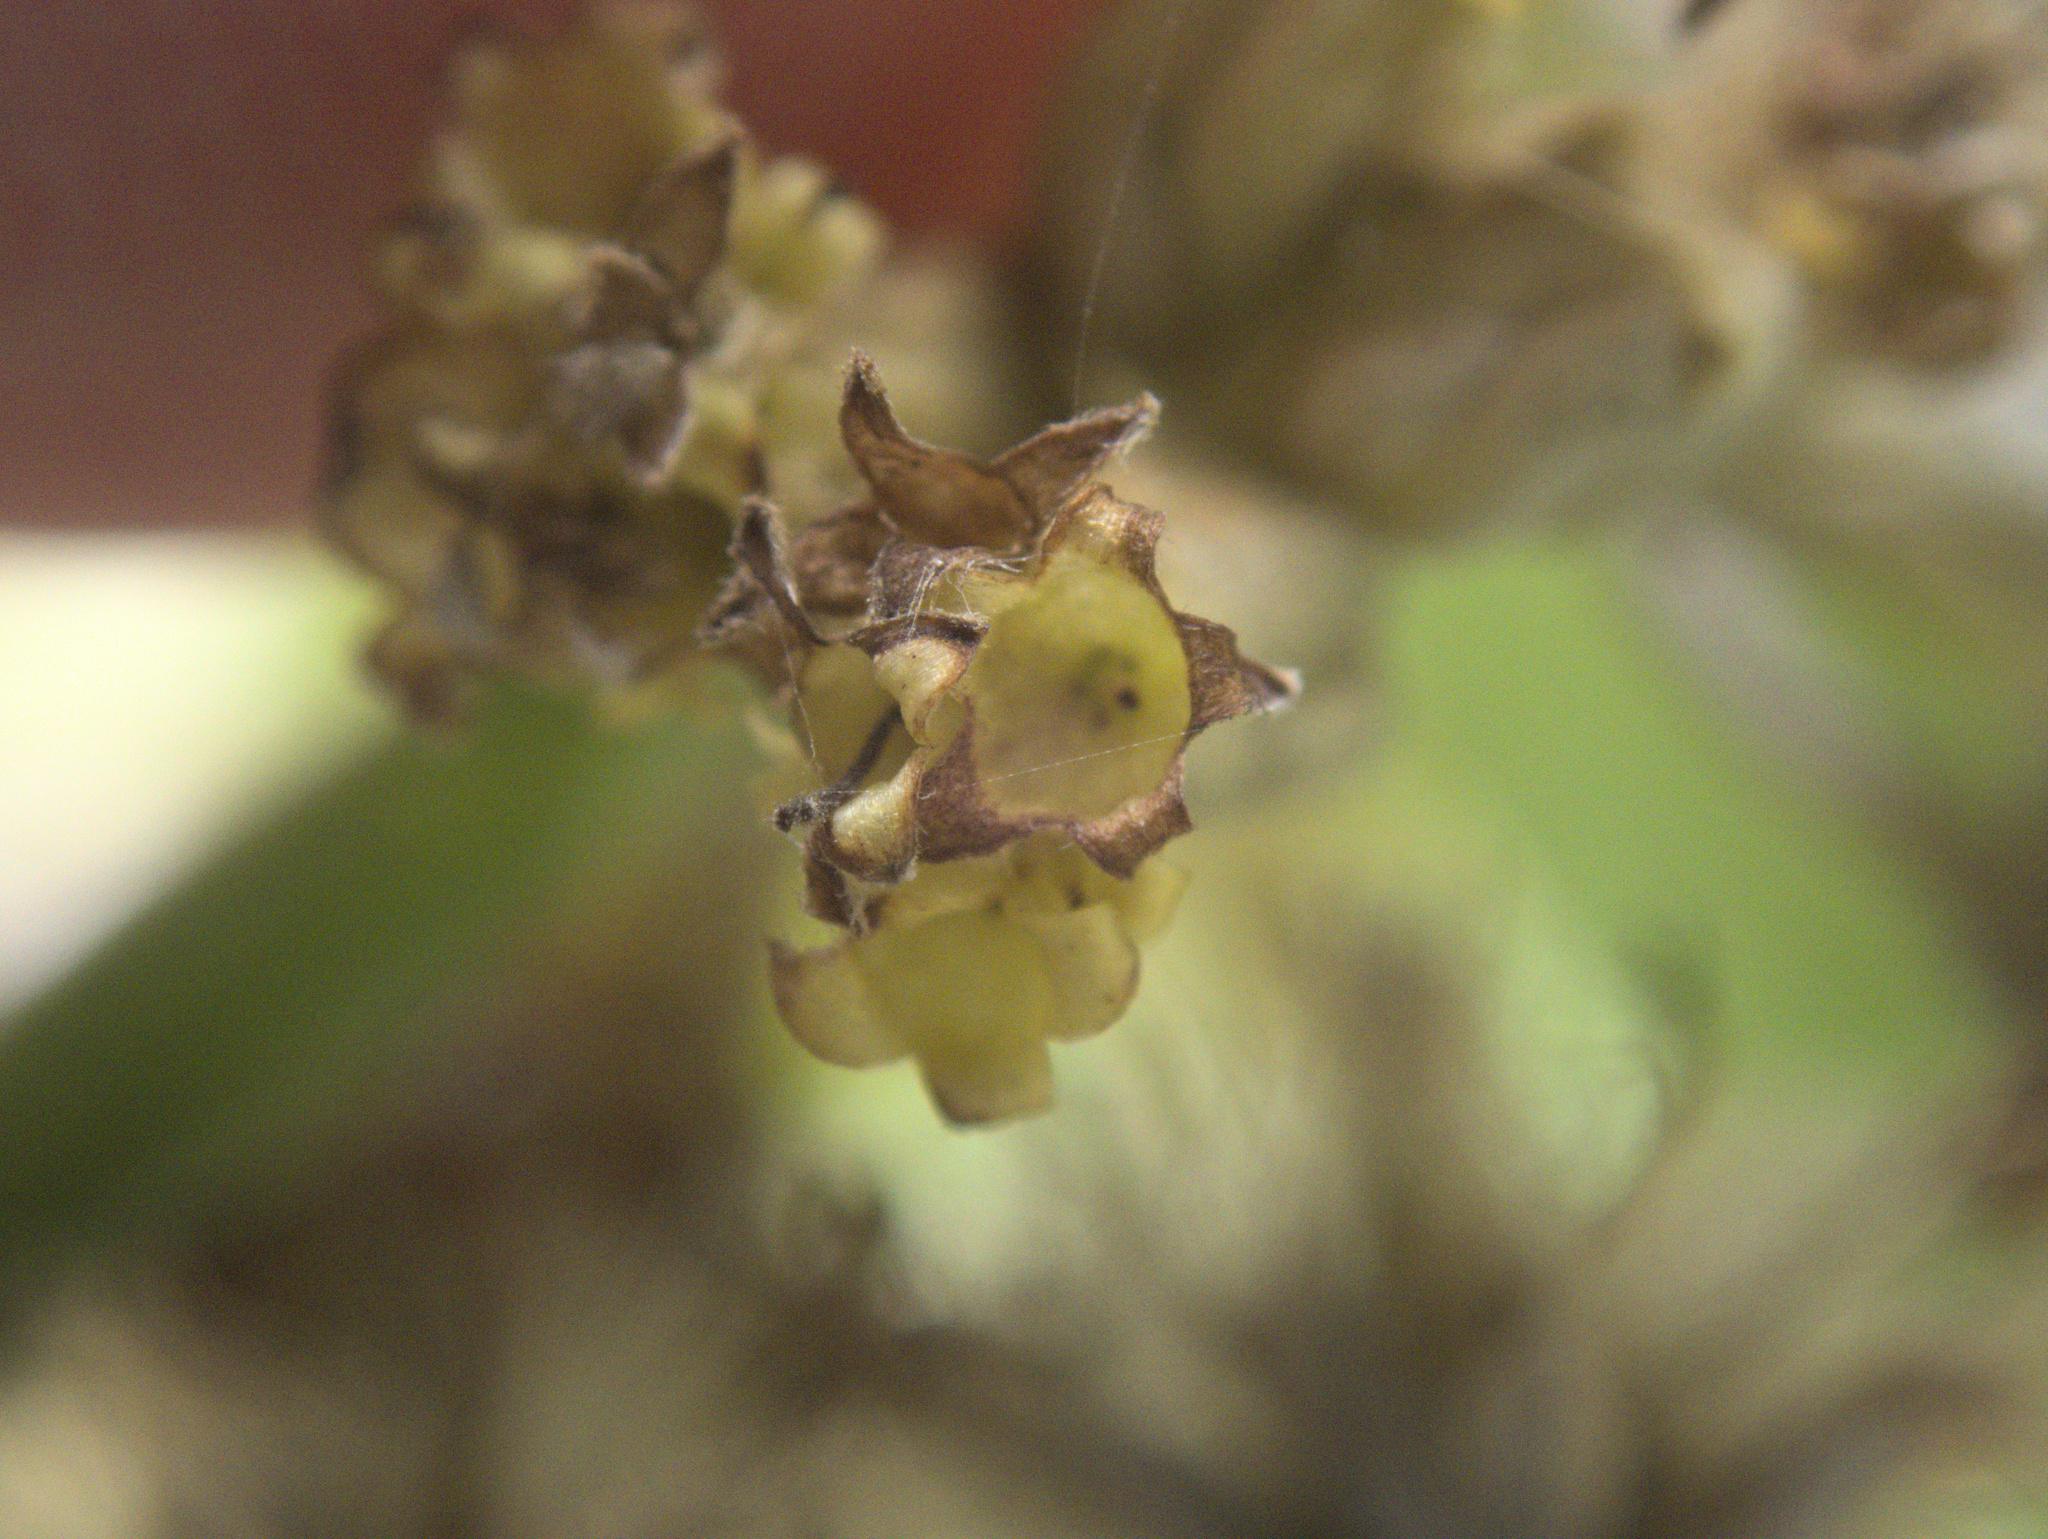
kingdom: Plantae
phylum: Tracheophyta
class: Magnoliopsida
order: Asterales
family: Asteraceae
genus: Olearia
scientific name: Olearia traversiorum
